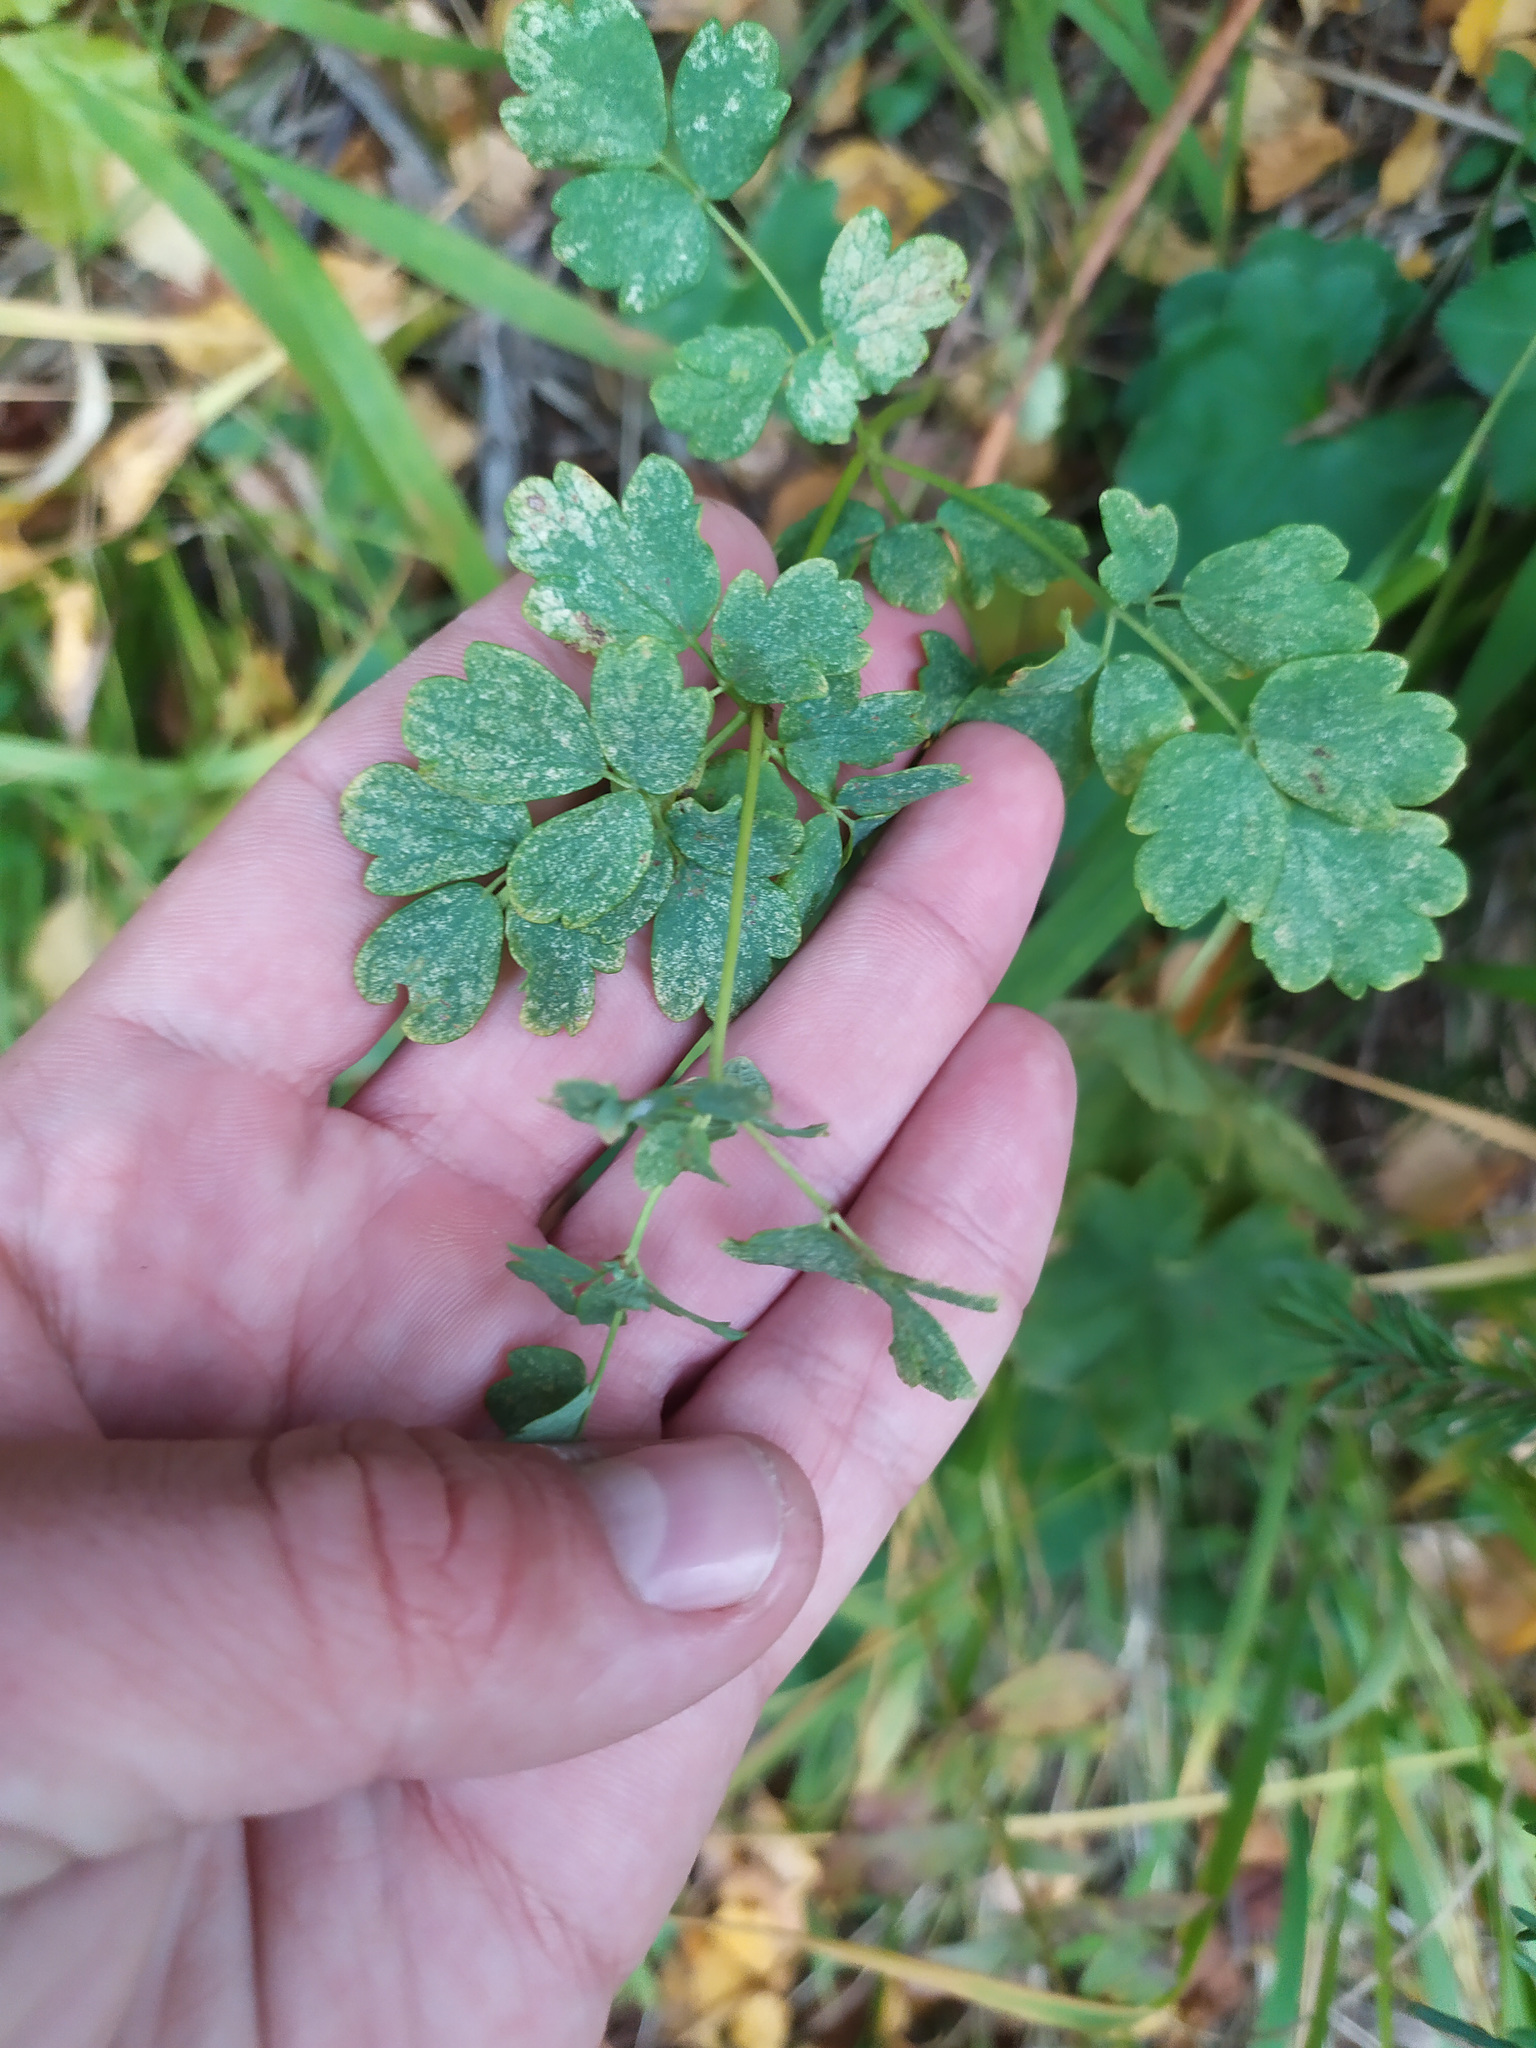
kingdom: Plantae
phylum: Tracheophyta
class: Magnoliopsida
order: Ranunculales
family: Ranunculaceae
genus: Thalictrum
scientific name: Thalictrum minus
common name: Lesser meadow-rue
